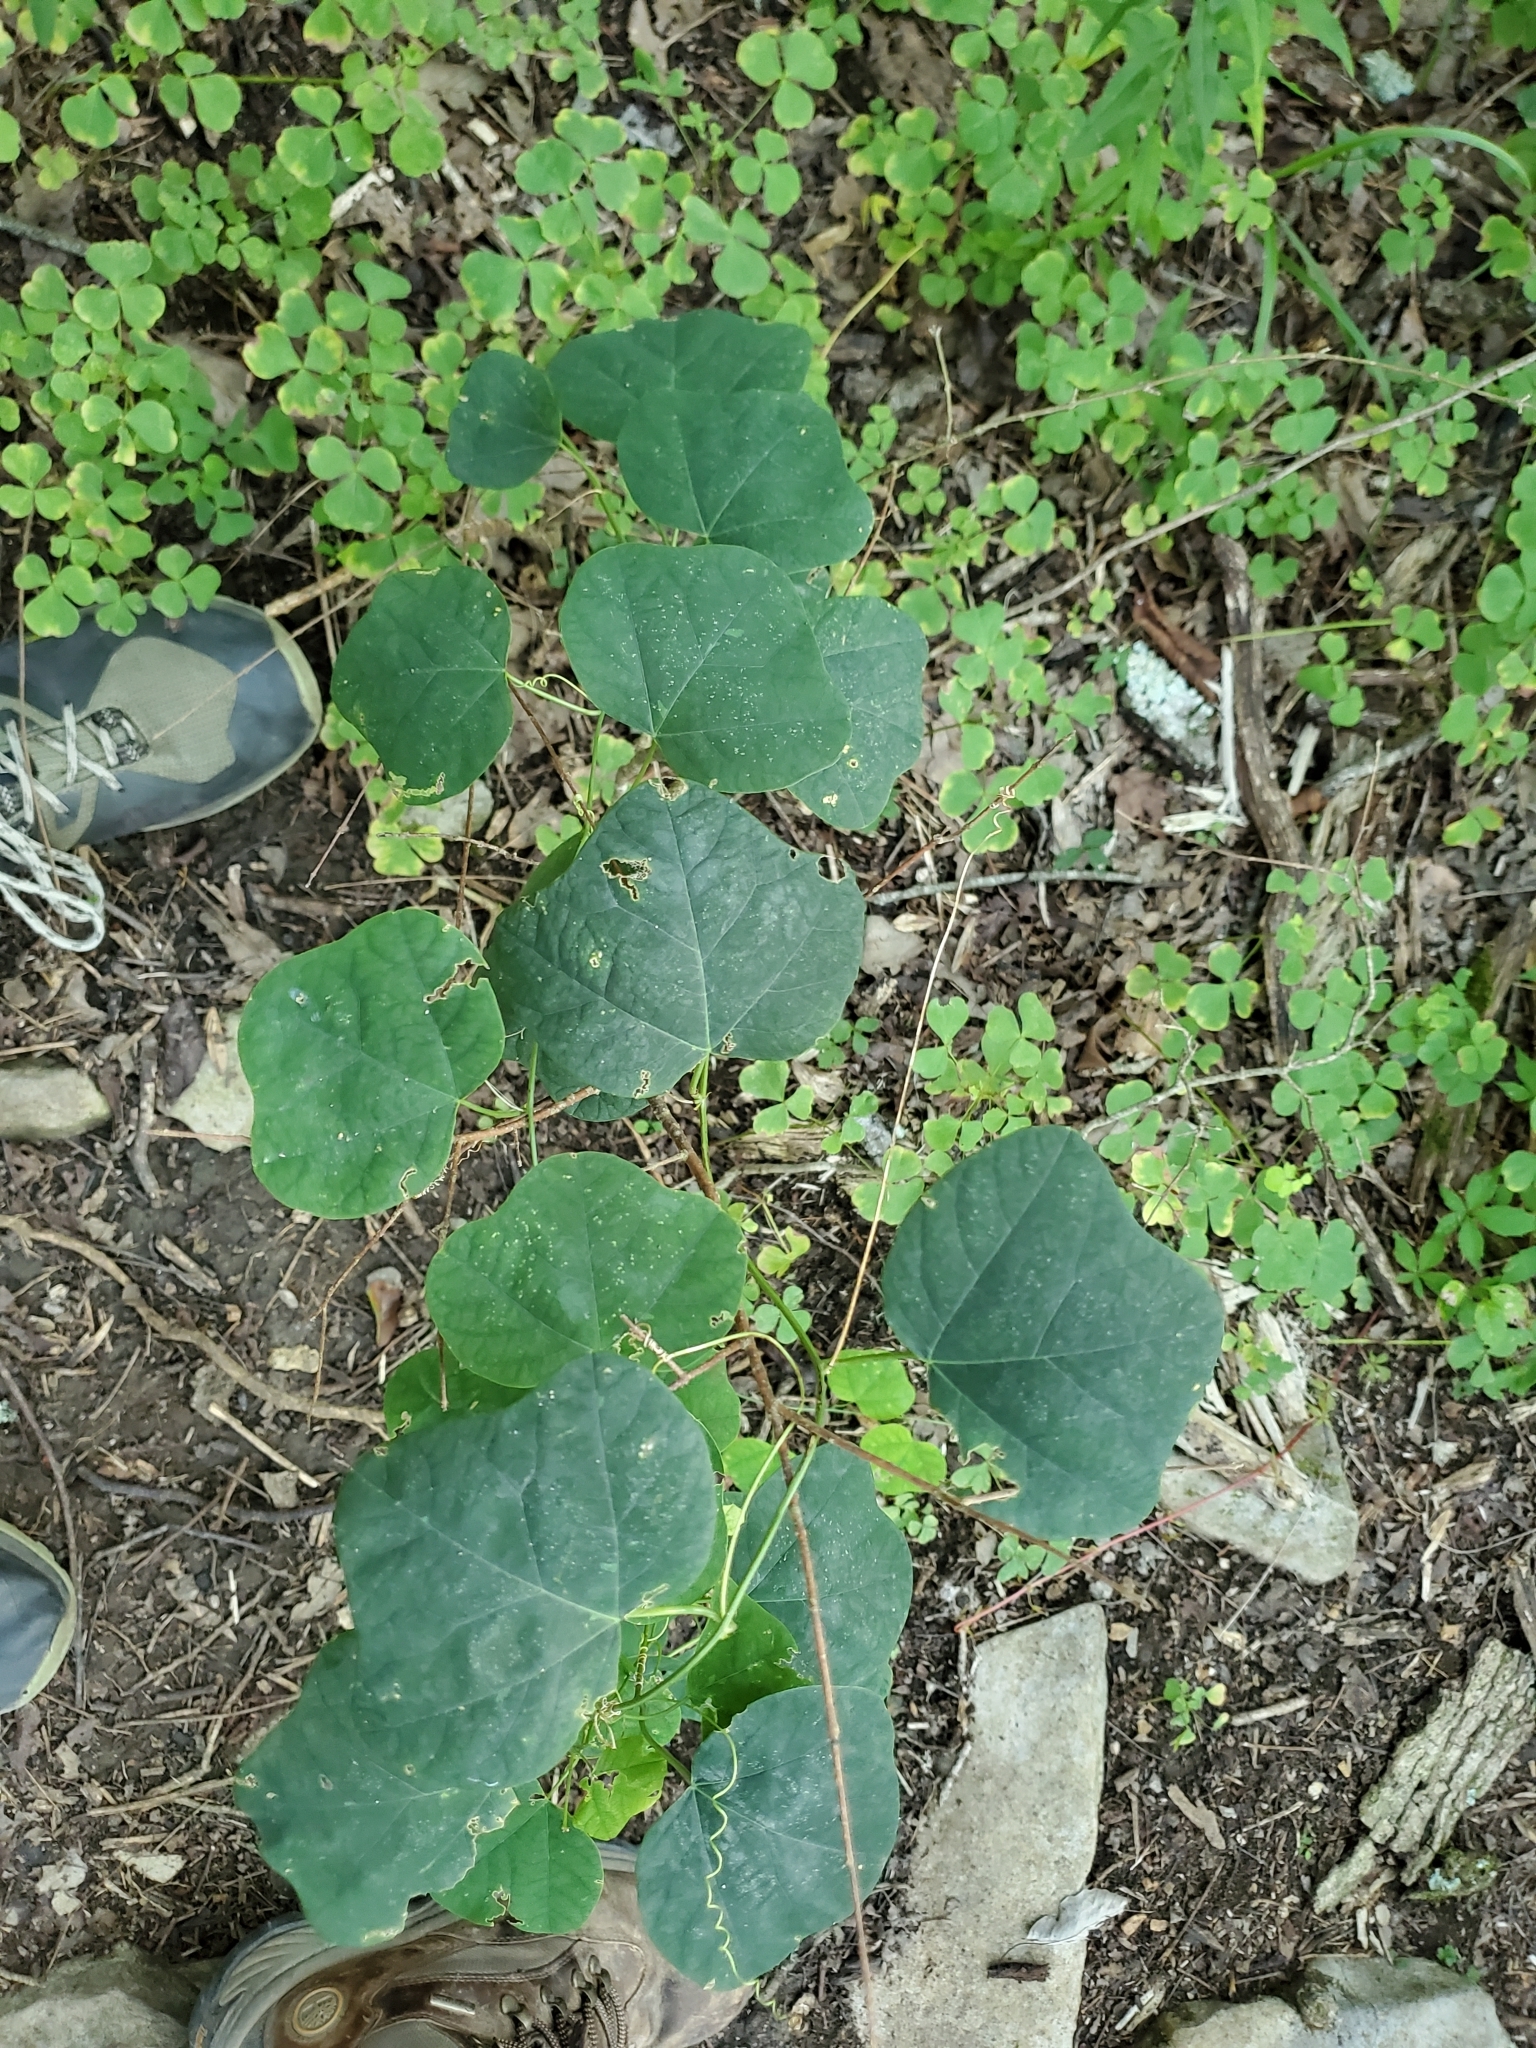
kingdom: Plantae
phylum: Tracheophyta
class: Magnoliopsida
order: Malpighiales
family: Passifloraceae
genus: Passiflora
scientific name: Passiflora lutea
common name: Yellow passionflower
